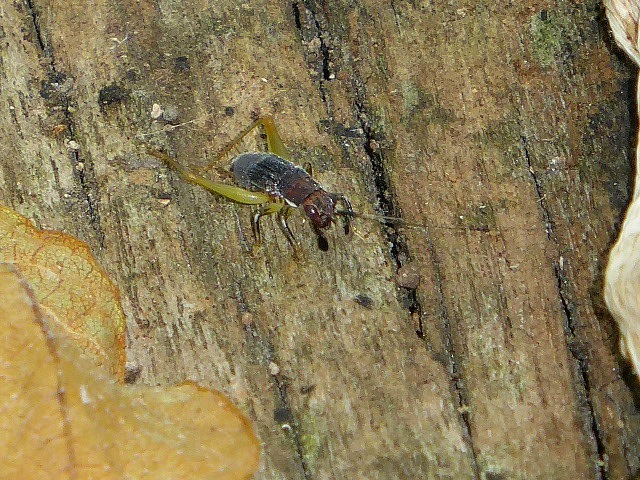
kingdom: Animalia
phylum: Arthropoda
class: Insecta
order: Orthoptera
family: Trigonidiidae
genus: Phyllopalpus
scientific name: Phyllopalpus pulchellus
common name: Handsome trig
